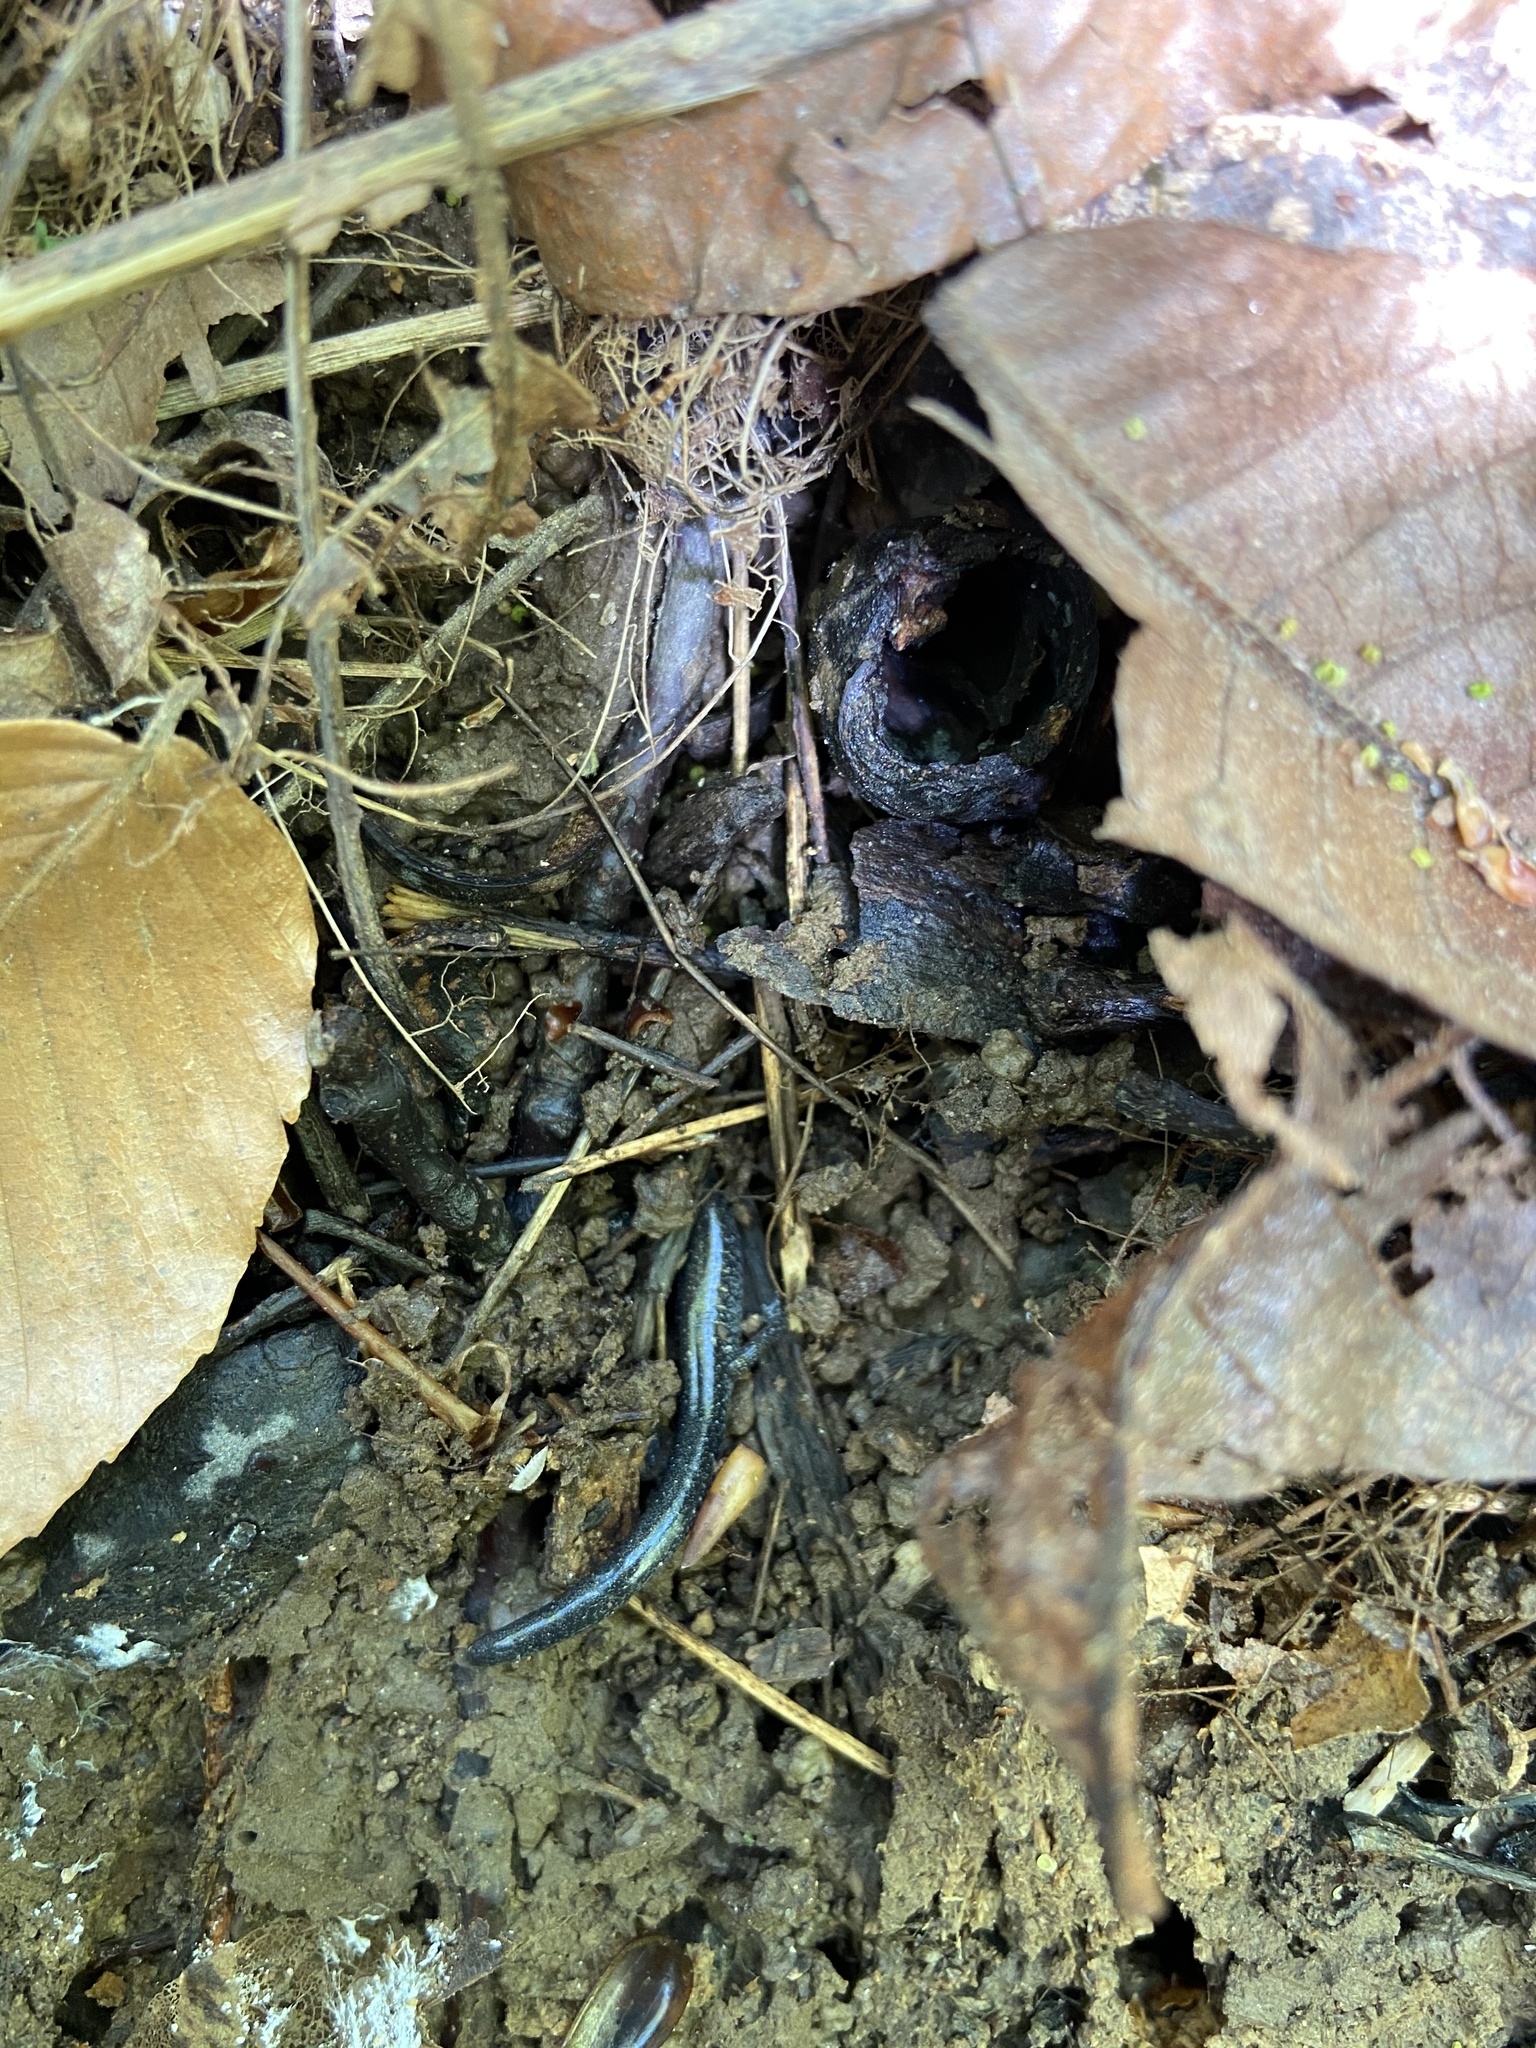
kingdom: Animalia
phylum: Chordata
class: Amphibia
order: Caudata
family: Plethodontidae
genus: Plethodon
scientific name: Plethodon cinereus
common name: Redback salamander
